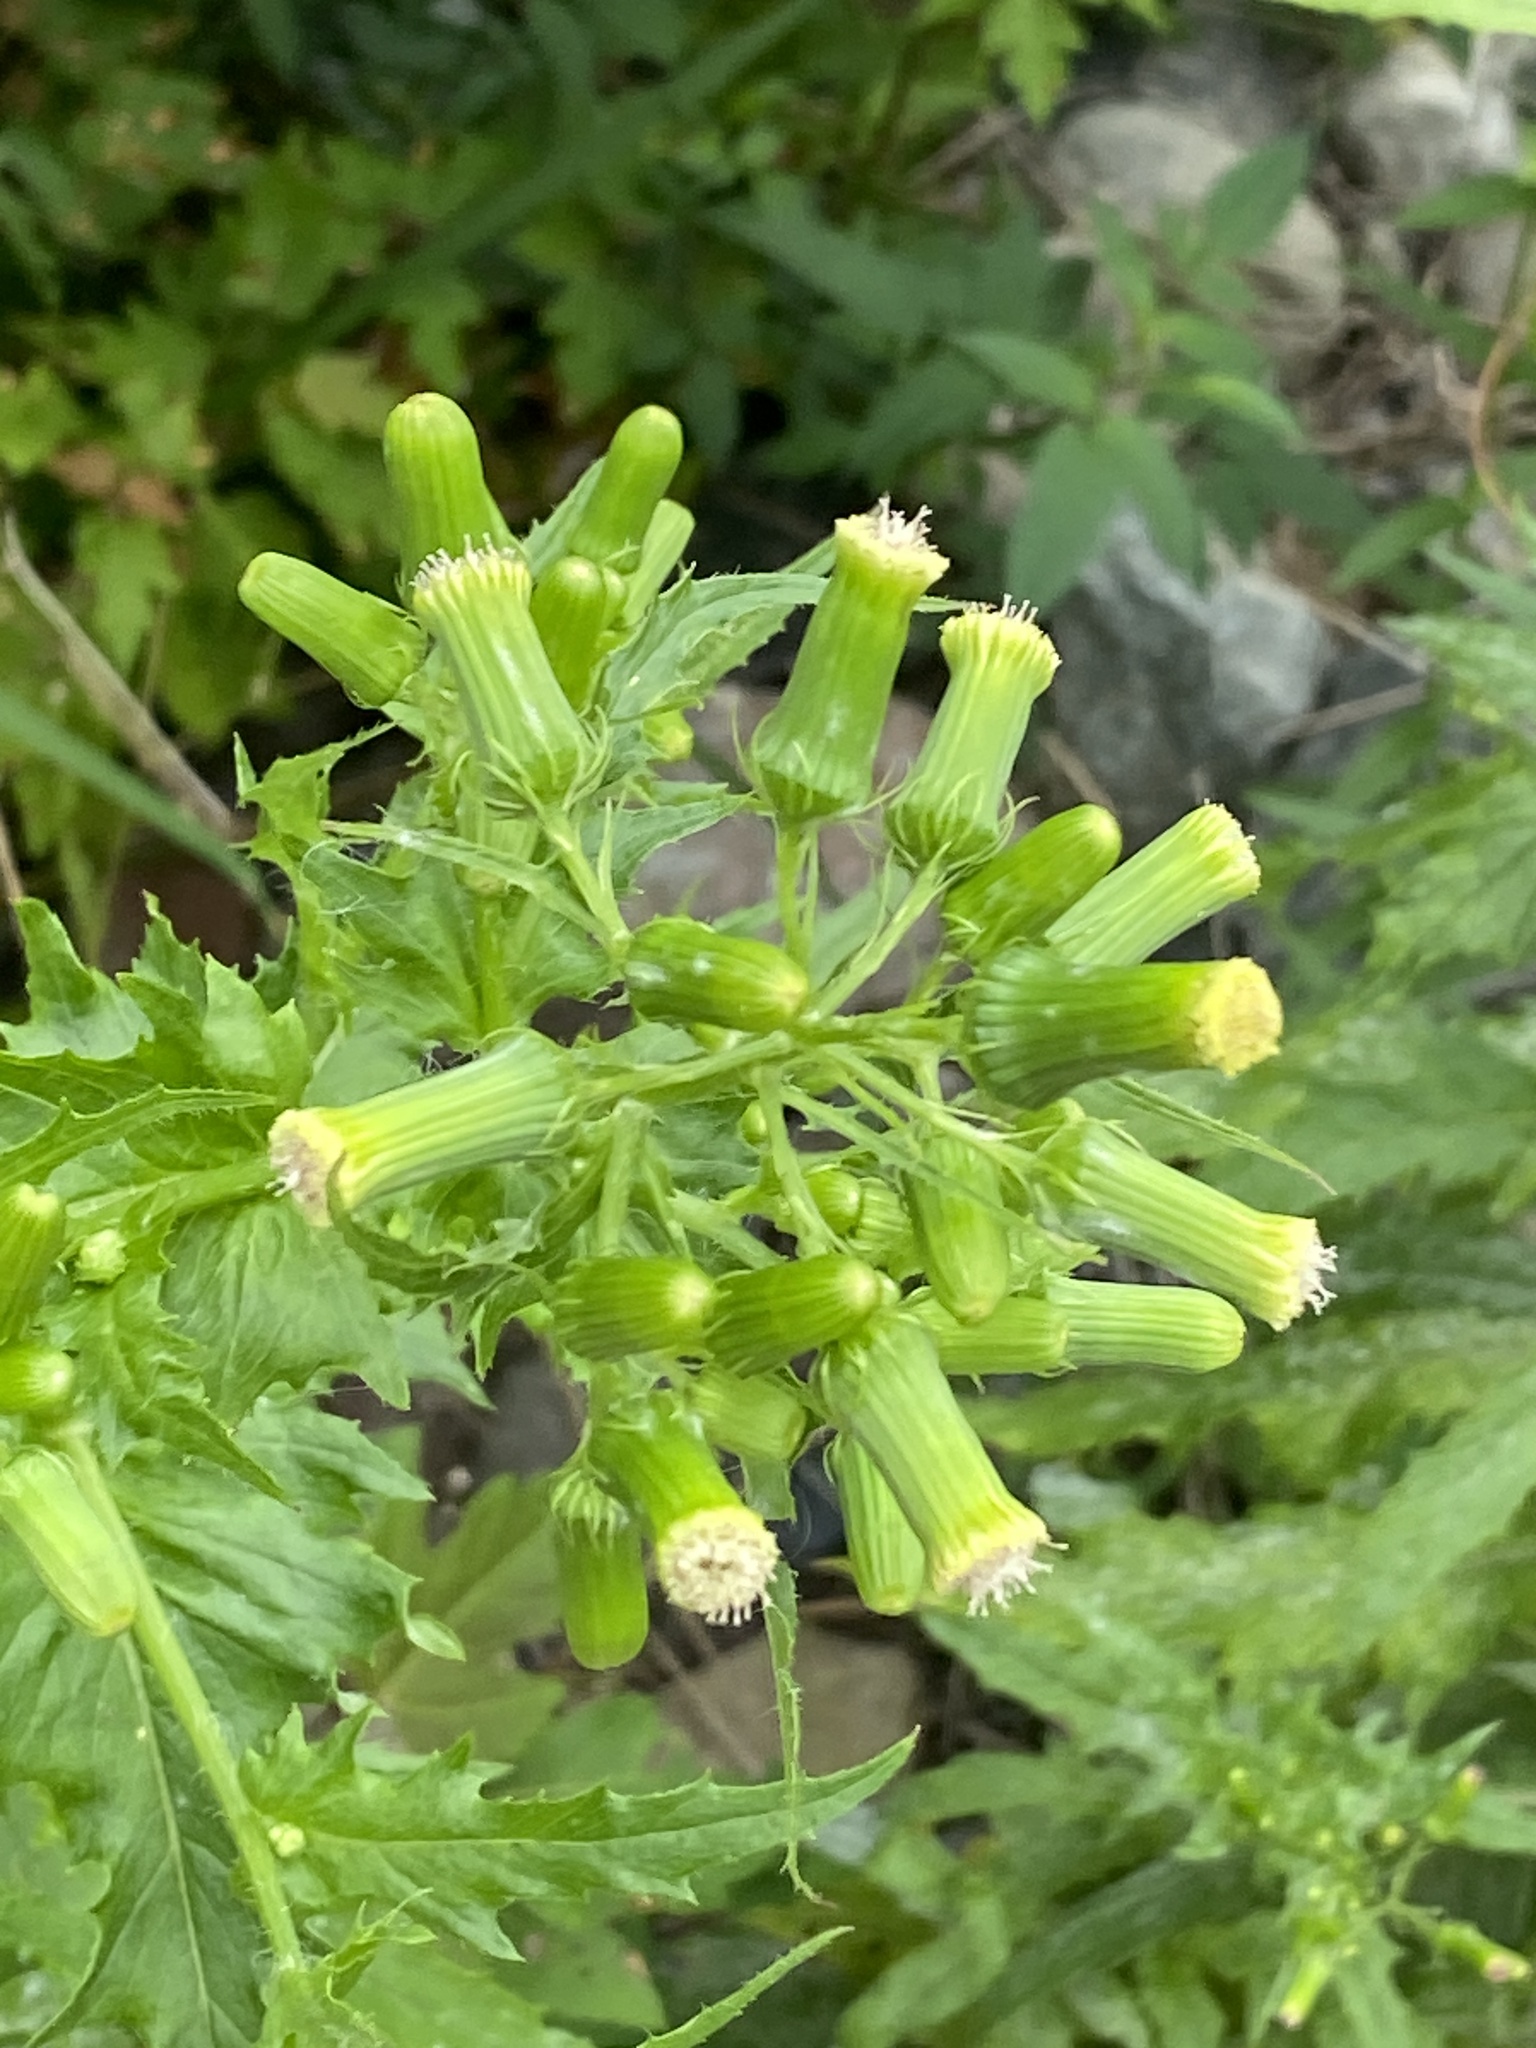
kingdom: Plantae
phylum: Tracheophyta
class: Magnoliopsida
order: Asterales
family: Asteraceae
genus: Erechtites
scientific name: Erechtites hieraciifolius
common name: American burnweed
